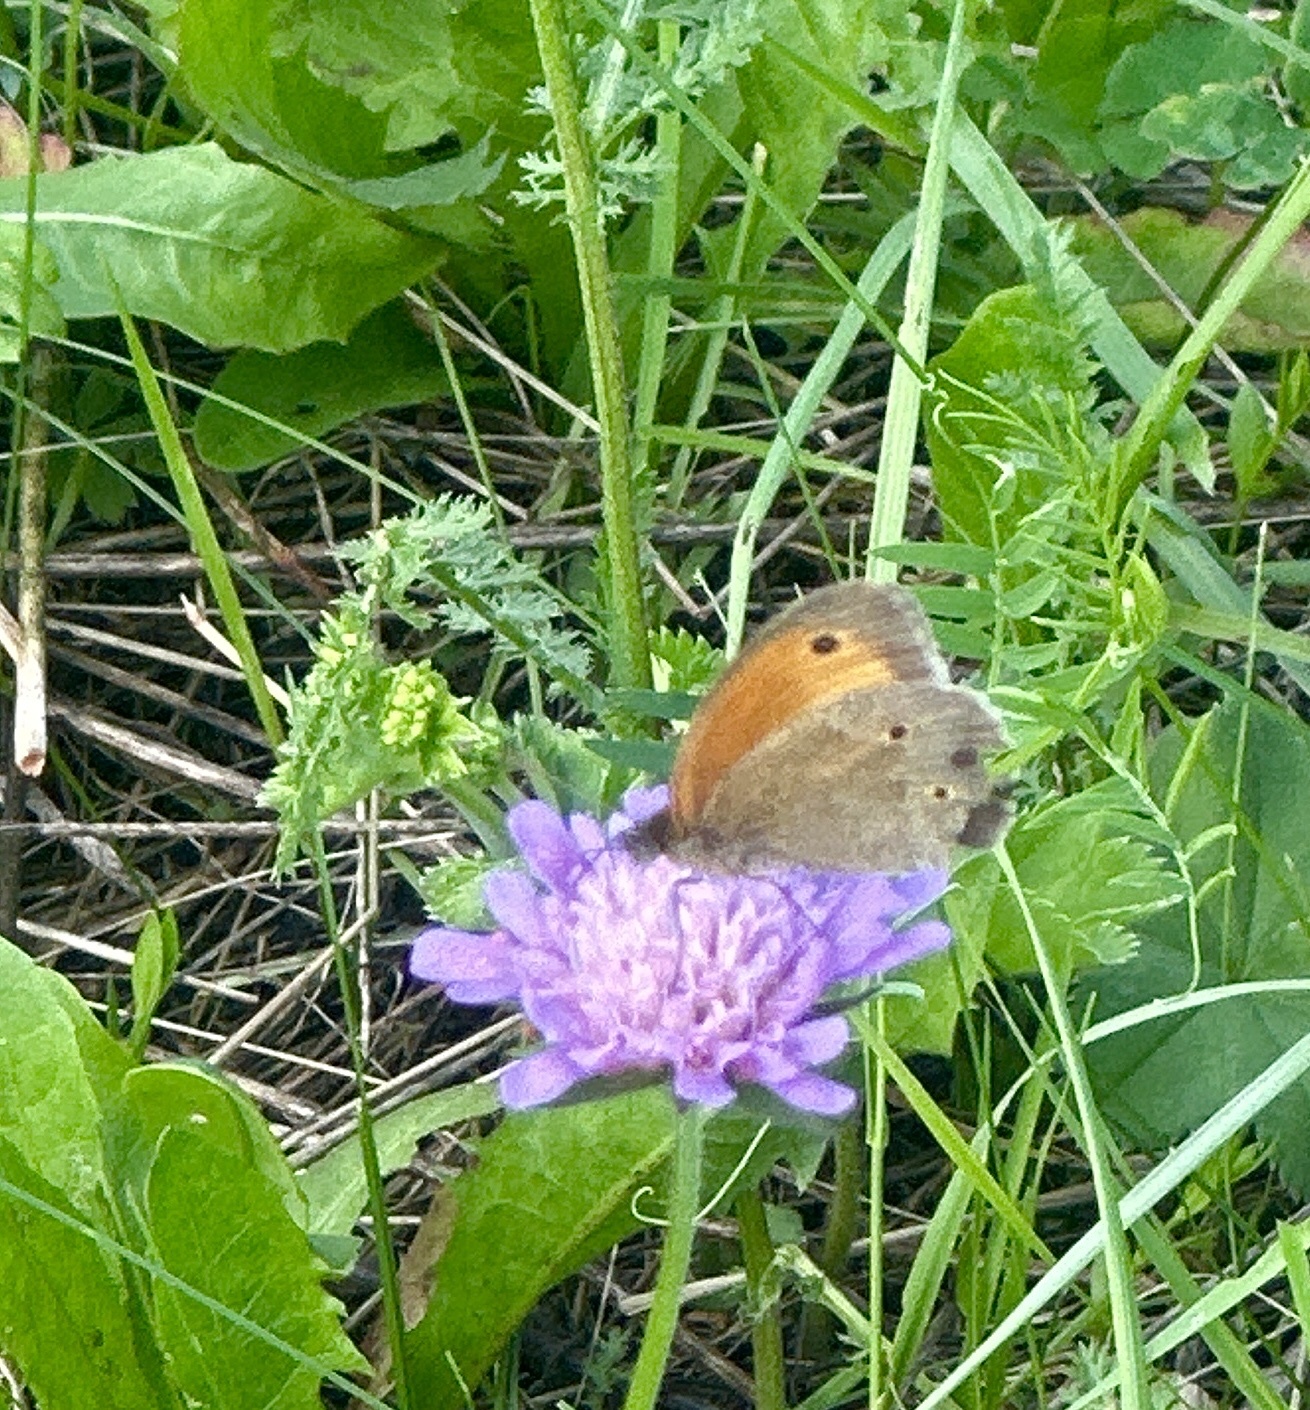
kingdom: Animalia
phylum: Arthropoda
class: Insecta
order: Lepidoptera
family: Nymphalidae
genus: Maniola
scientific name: Maniola jurtina
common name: Meadow brown
